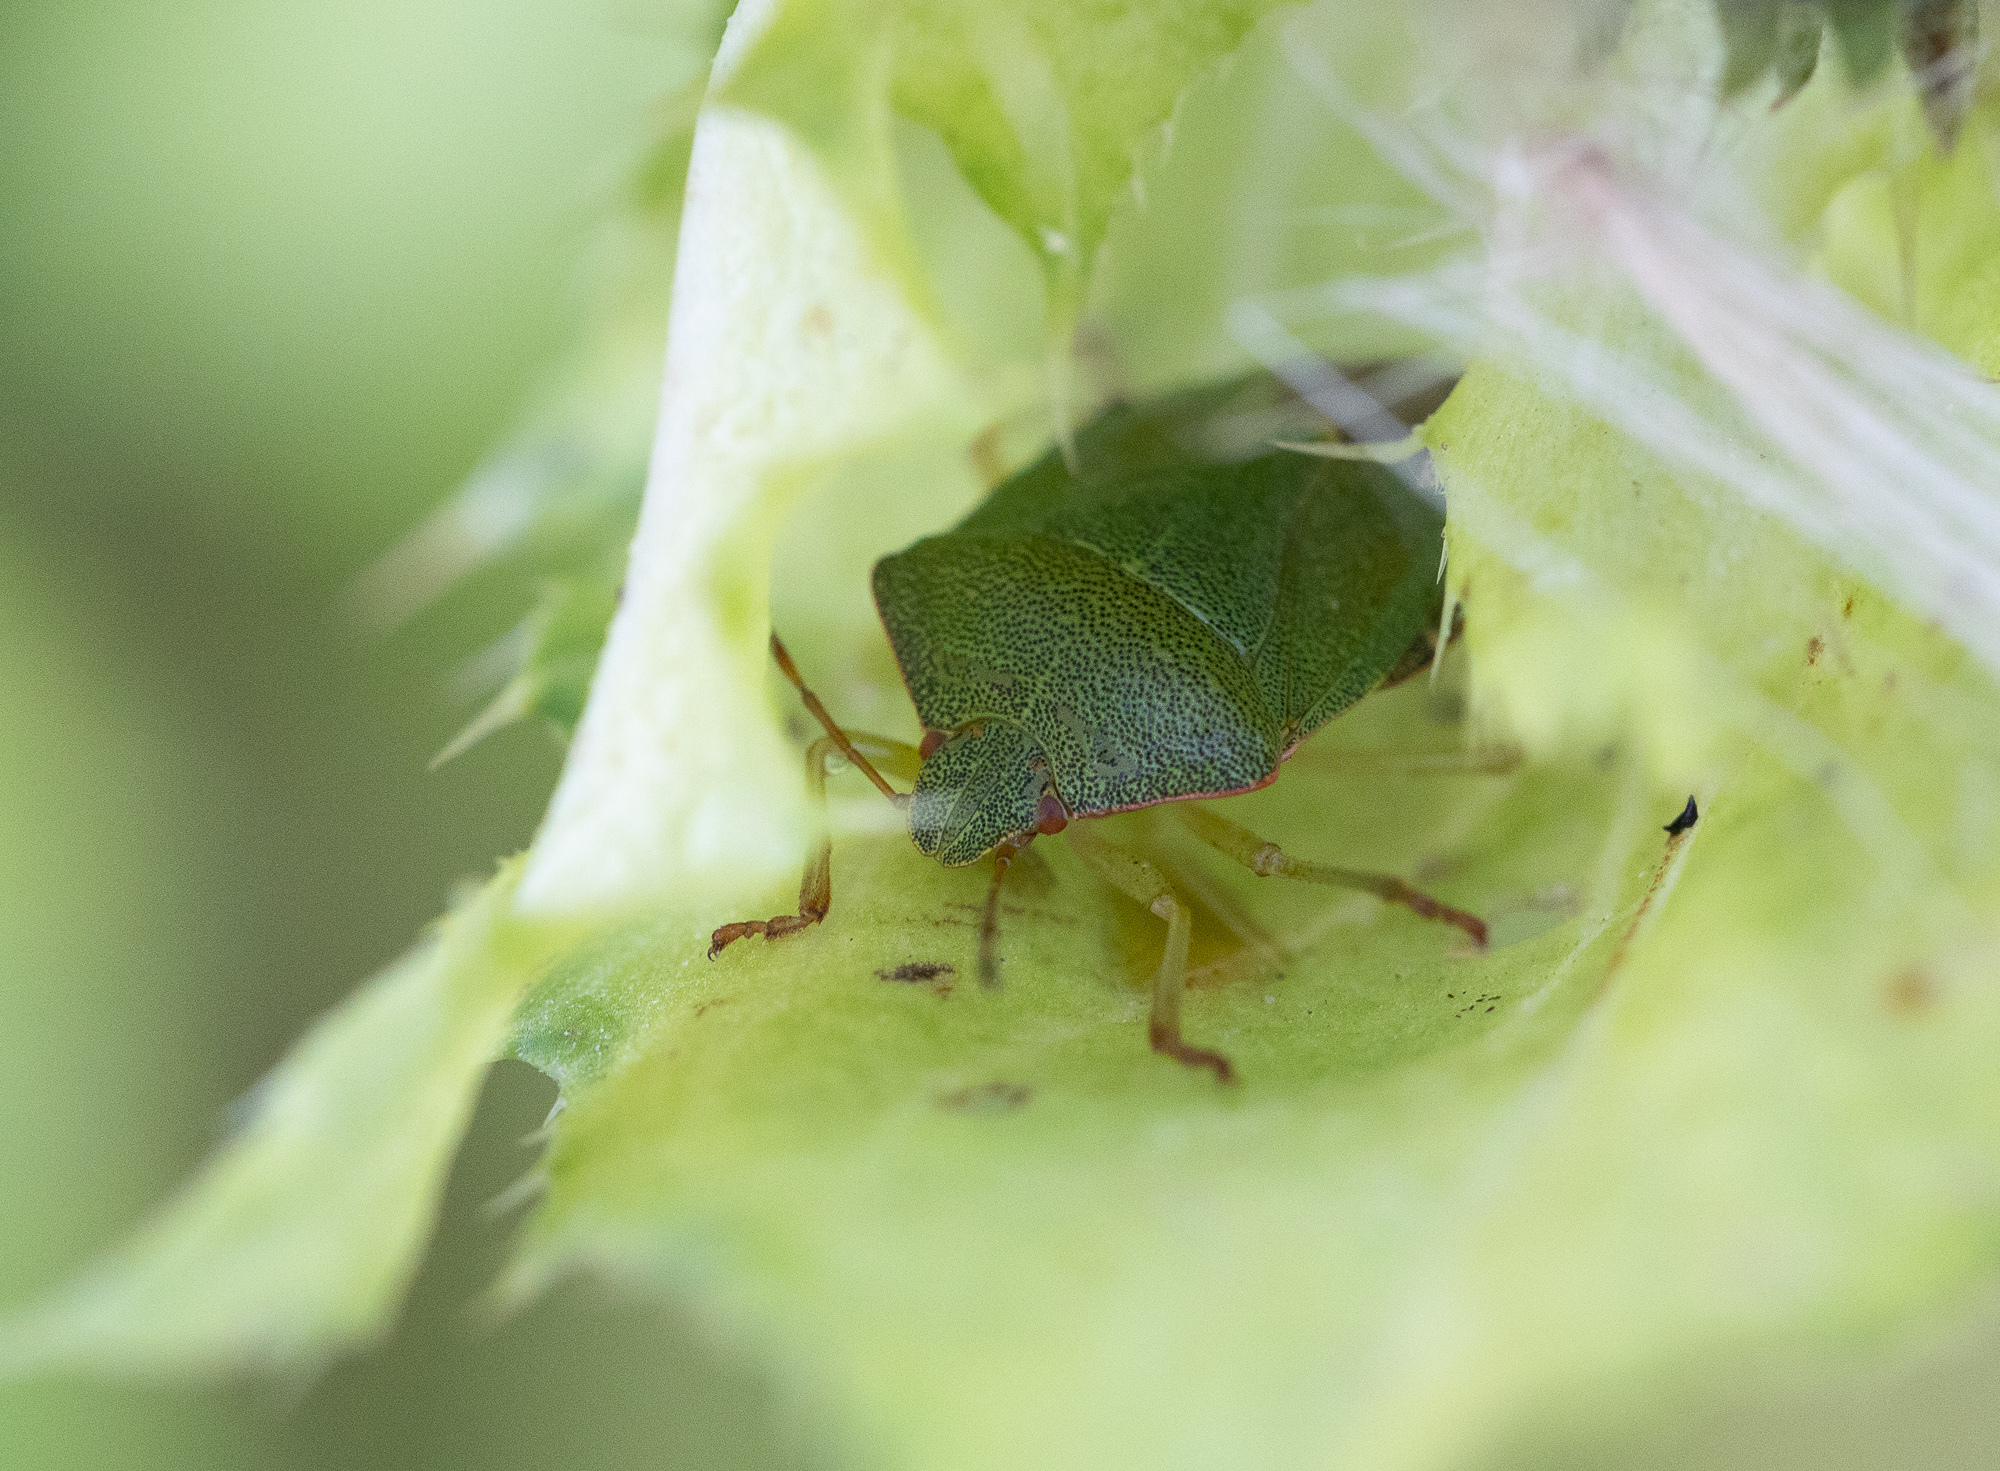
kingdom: Animalia
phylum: Arthropoda
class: Insecta
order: Hemiptera
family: Pentatomidae
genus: Palomena
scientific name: Palomena prasina
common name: Green shieldbug
